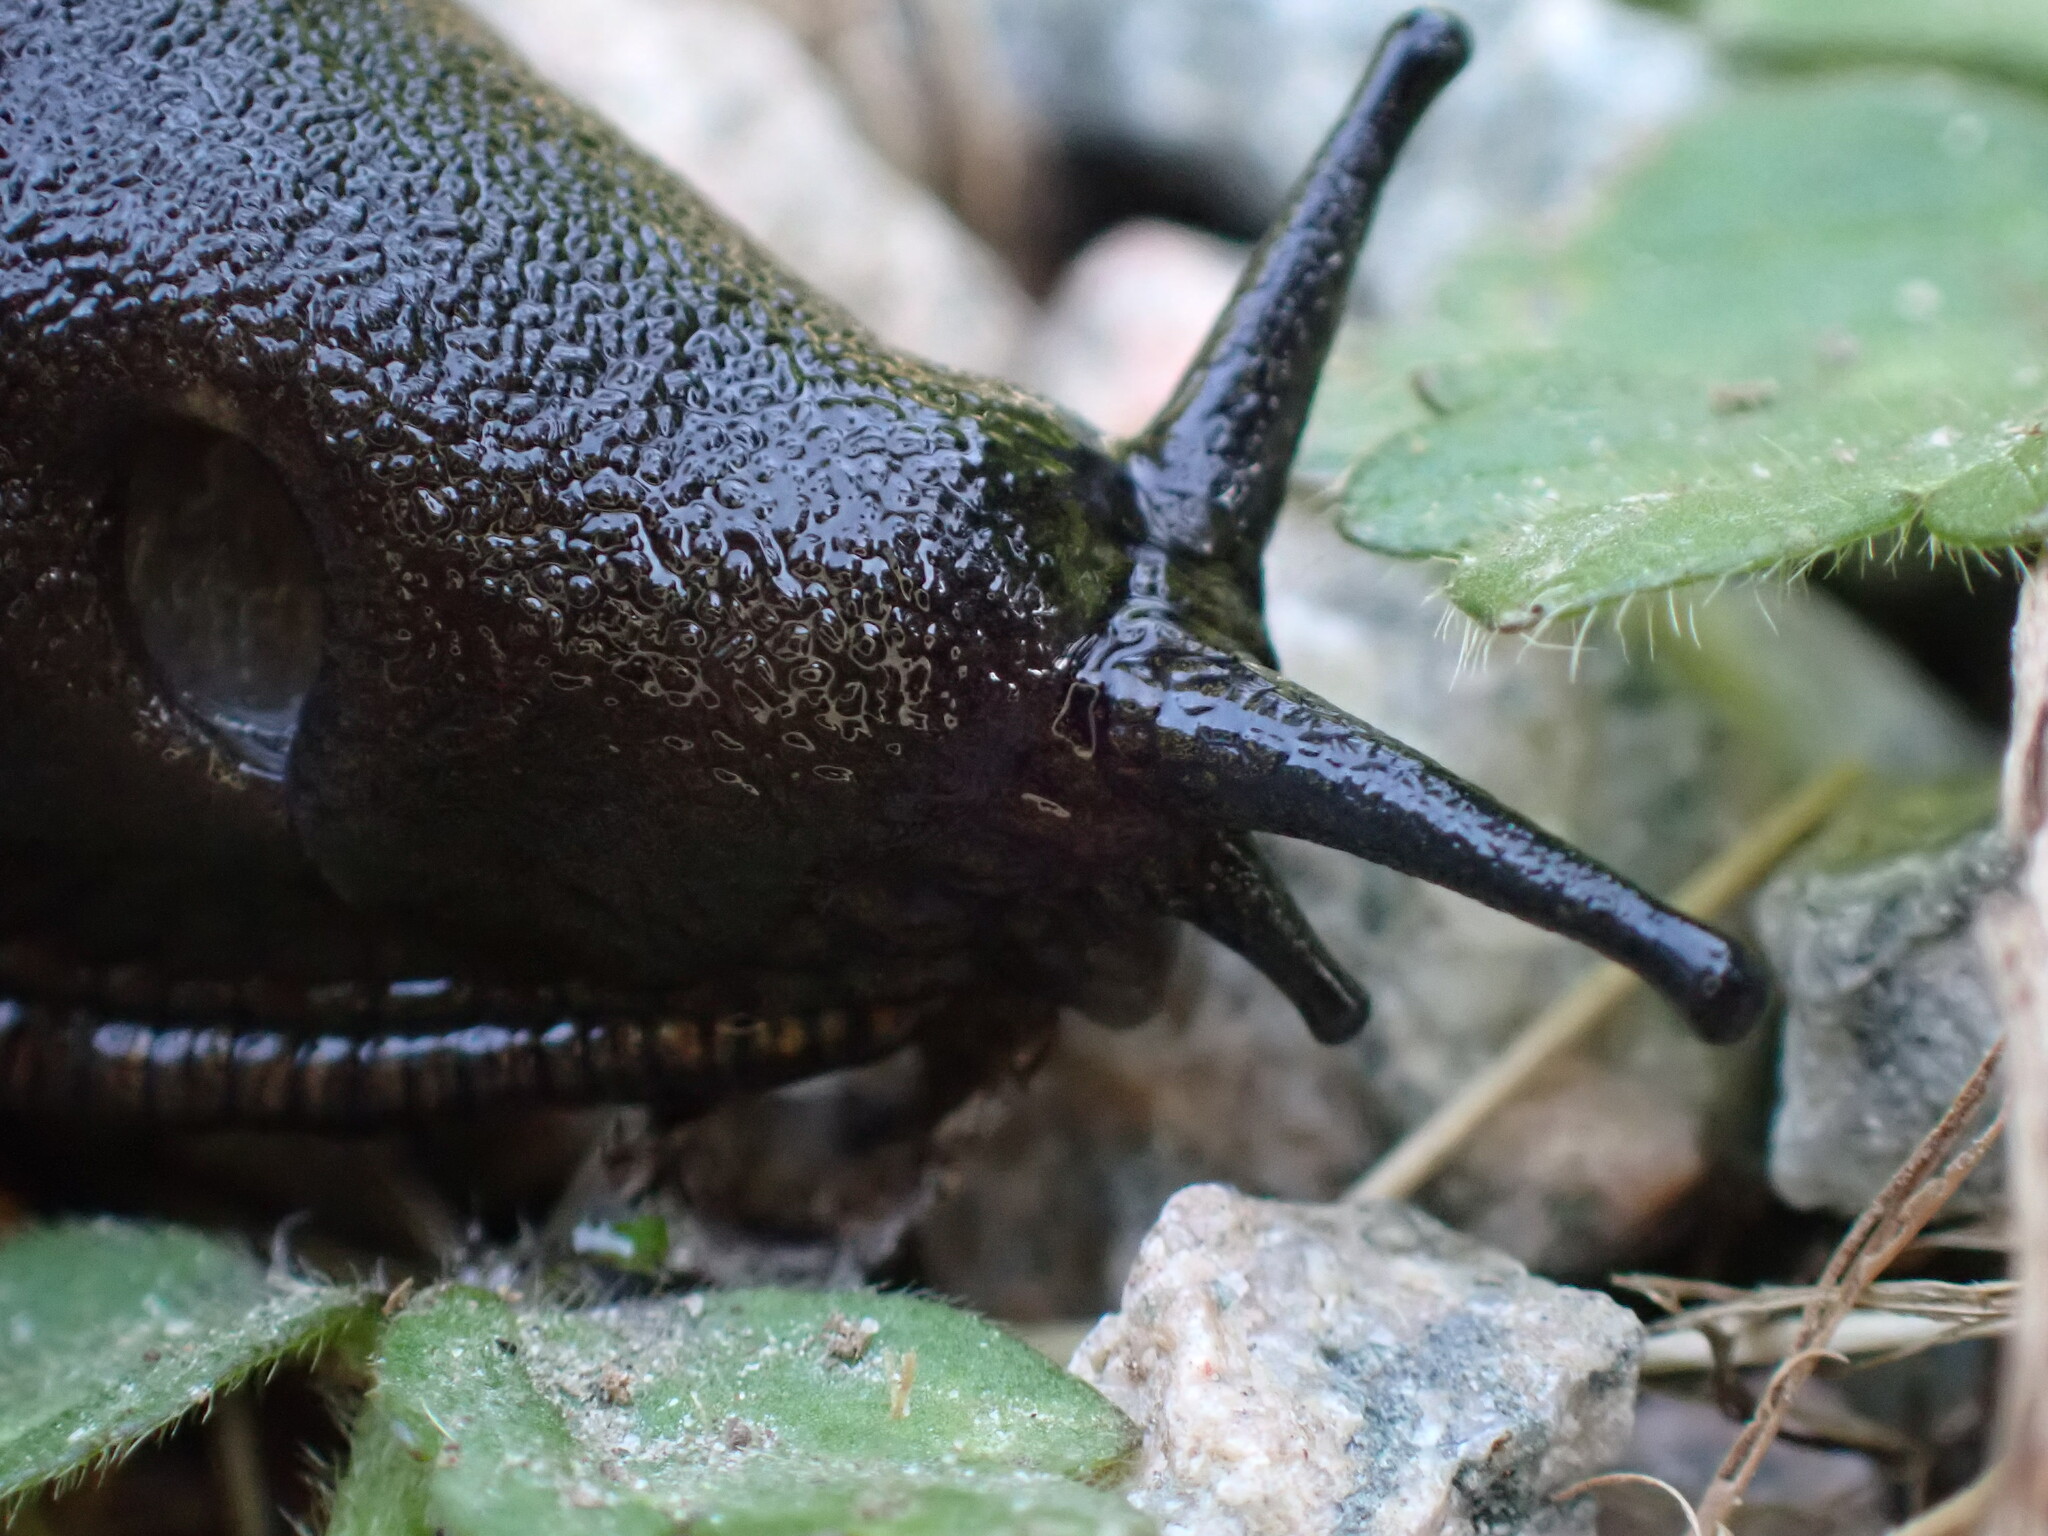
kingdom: Animalia
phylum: Mollusca
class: Gastropoda
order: Stylommatophora
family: Arionidae
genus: Arion
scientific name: Arion
